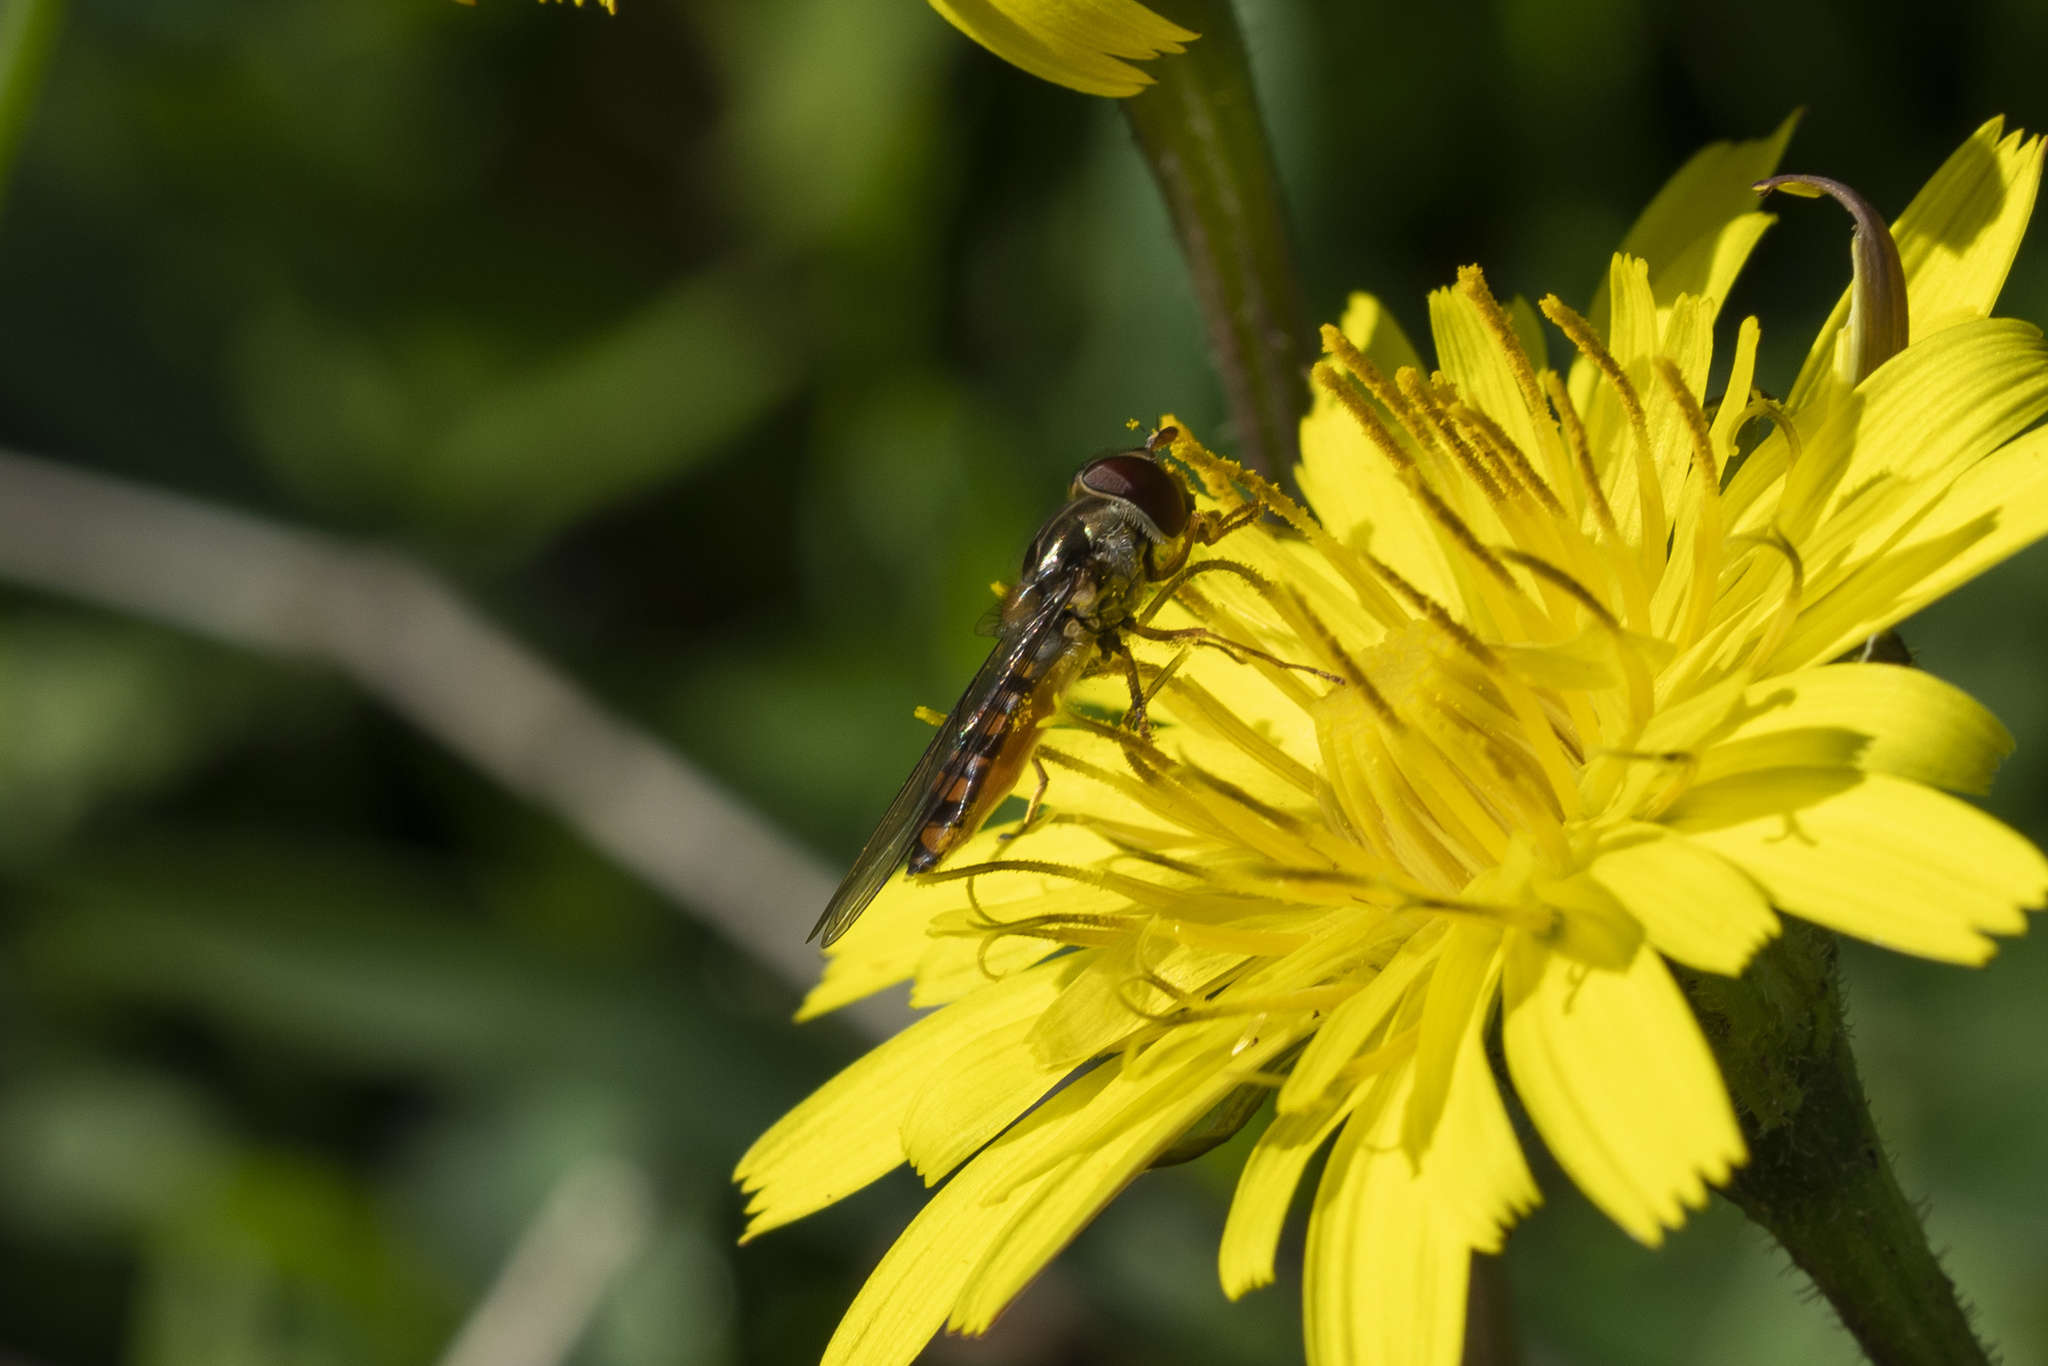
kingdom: Animalia
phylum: Arthropoda
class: Insecta
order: Diptera
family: Syrphidae
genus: Episyrphus
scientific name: Episyrphus balteatus
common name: Marmalade hoverfly
